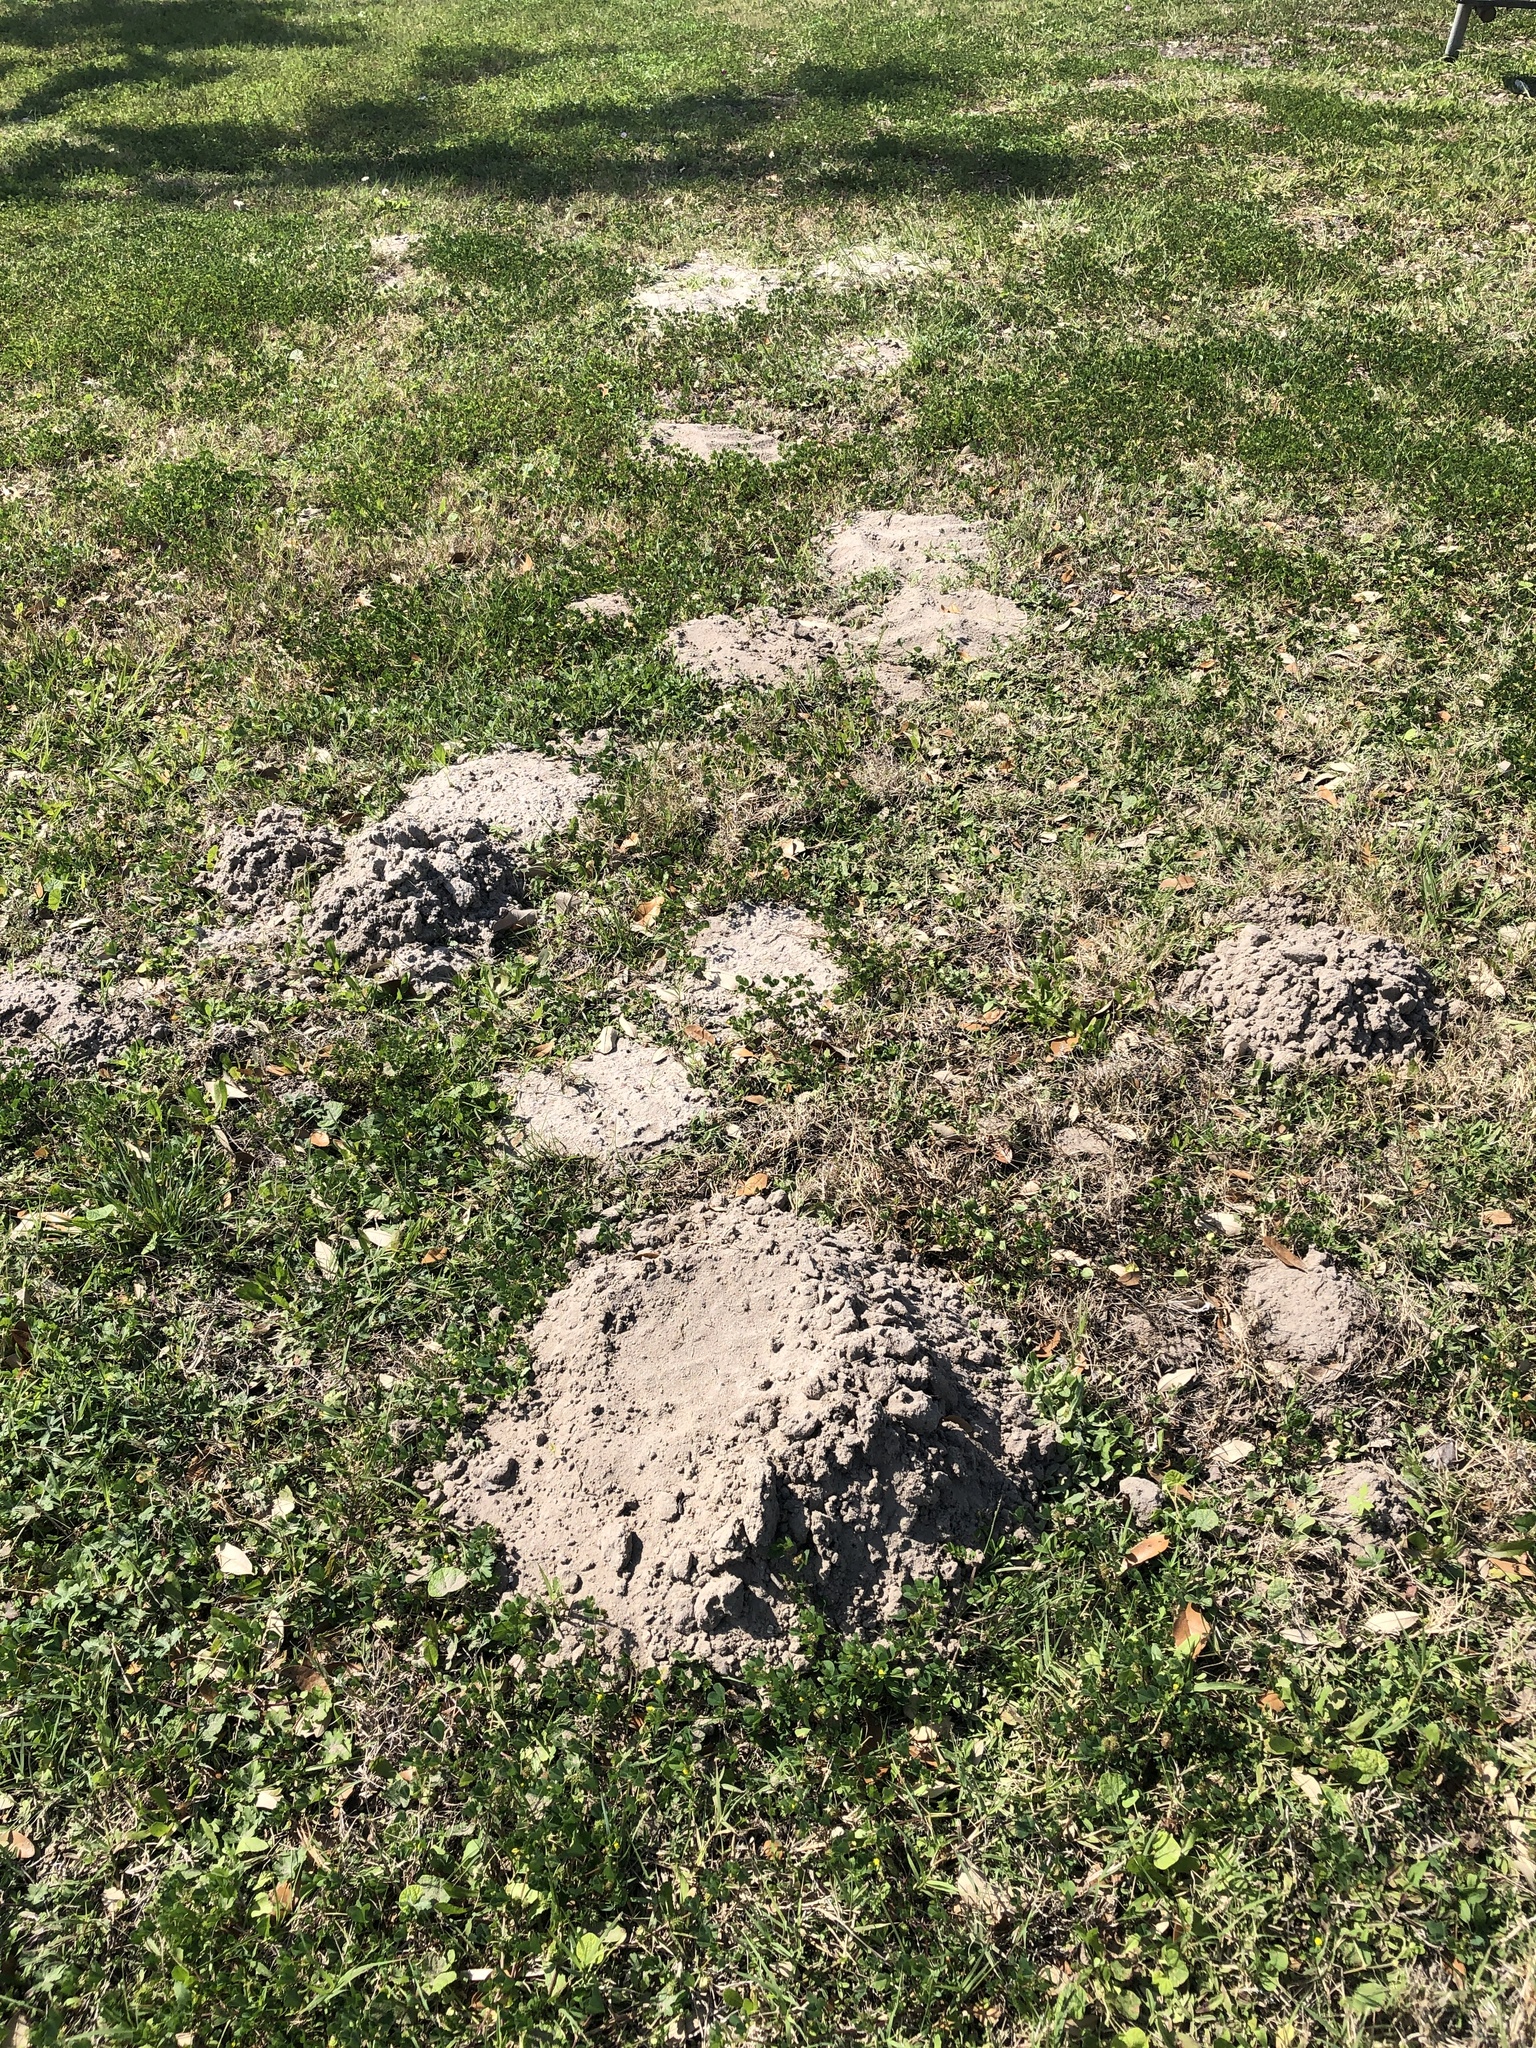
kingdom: Animalia
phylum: Chordata
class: Mammalia
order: Rodentia
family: Geomyidae
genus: Geomys
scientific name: Geomys attwateri
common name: Attwater's pocket gopher
